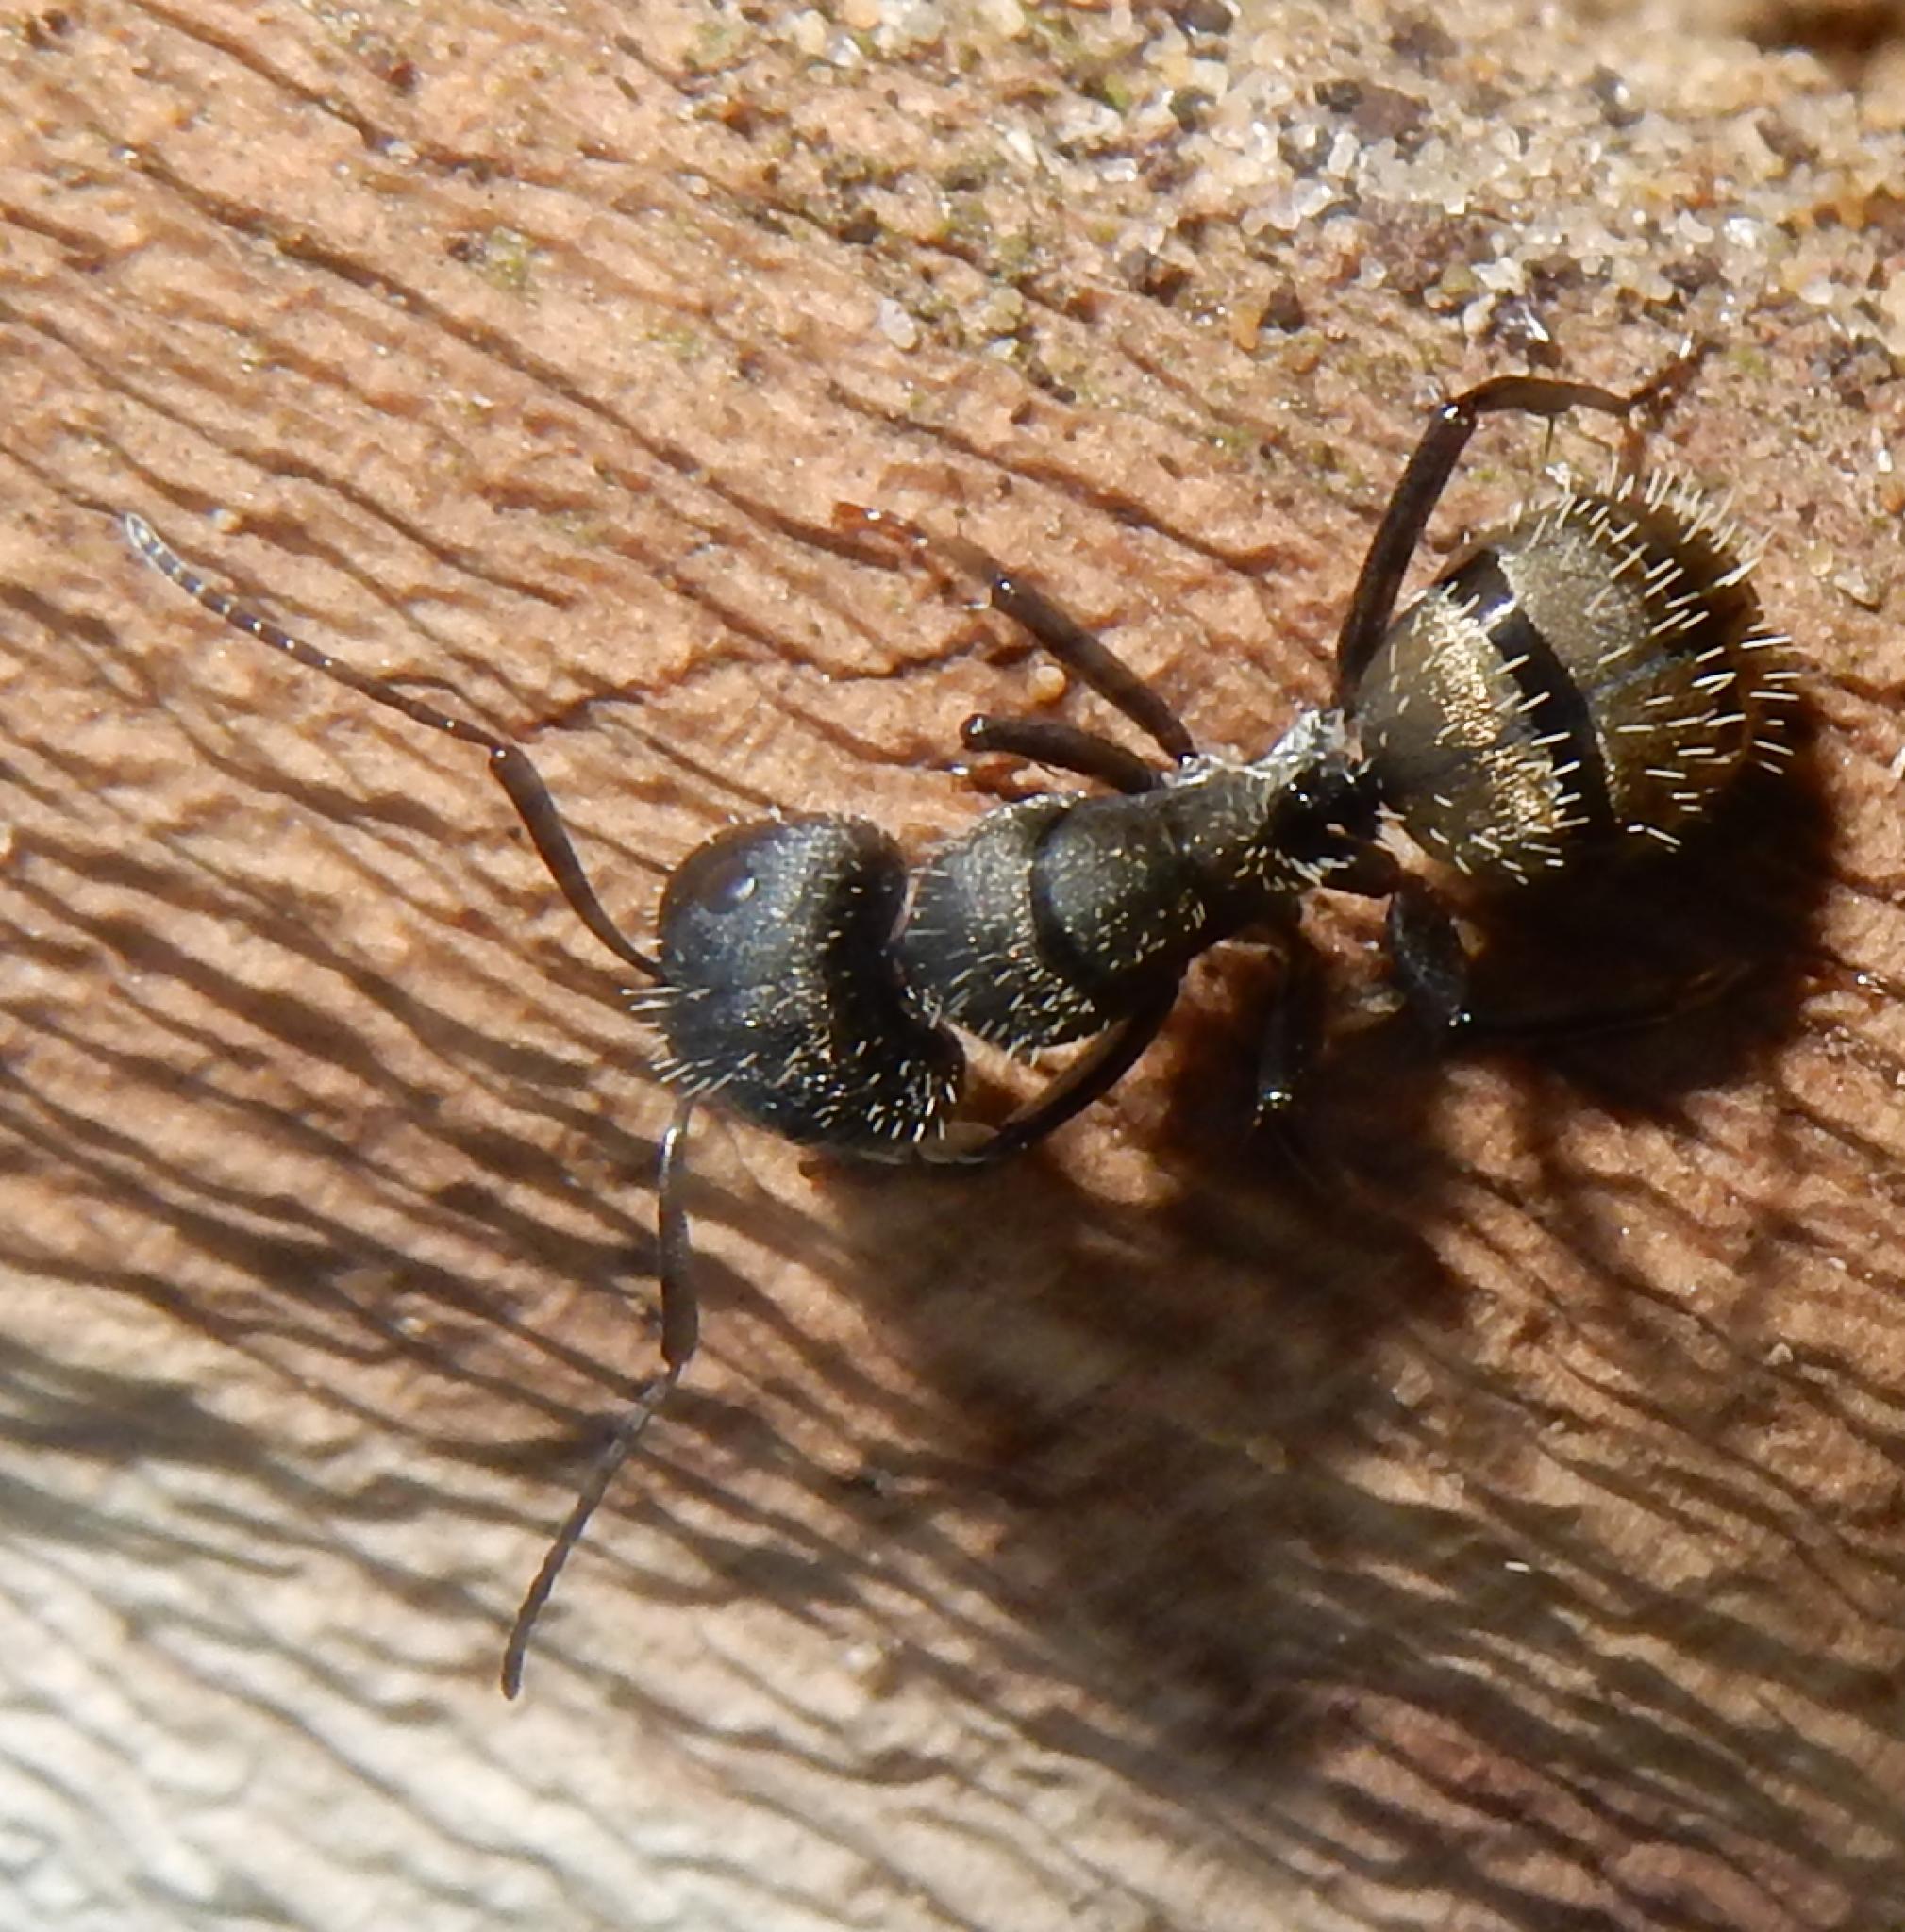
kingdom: Animalia
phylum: Arthropoda
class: Insecta
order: Hymenoptera
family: Formicidae
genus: Camponotus
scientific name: Camponotus postoculatus
